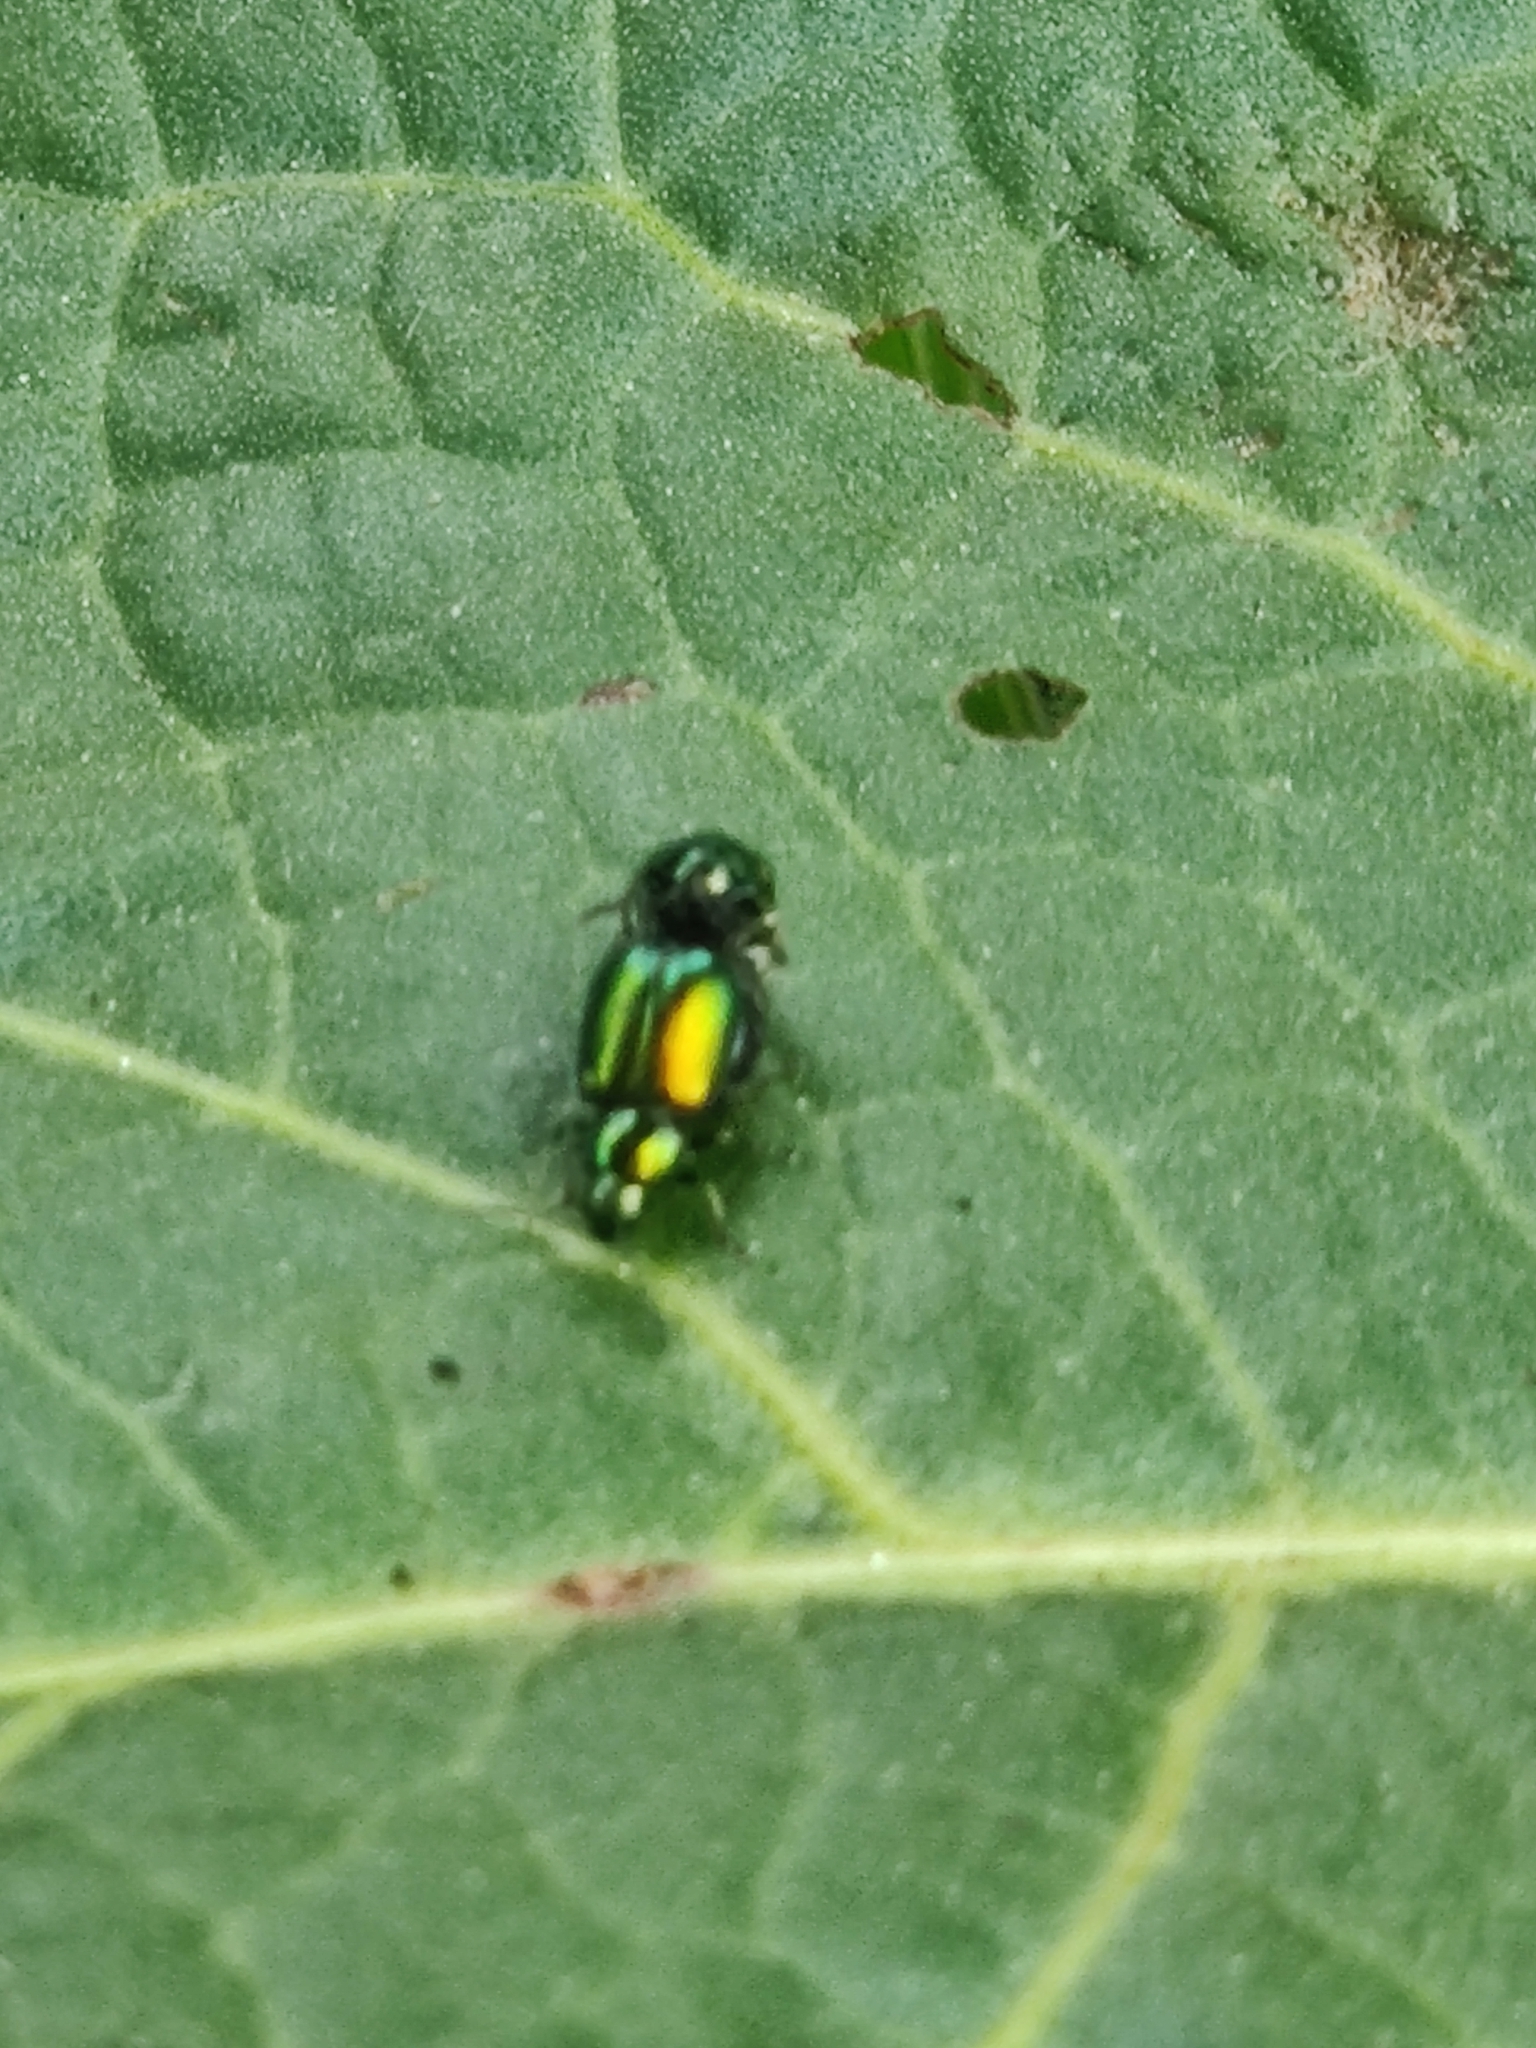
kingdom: Animalia
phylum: Arthropoda
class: Insecta
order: Coleoptera
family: Chrysomelidae
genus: Gastrophysa
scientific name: Gastrophysa viridula
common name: Green dock beetle
